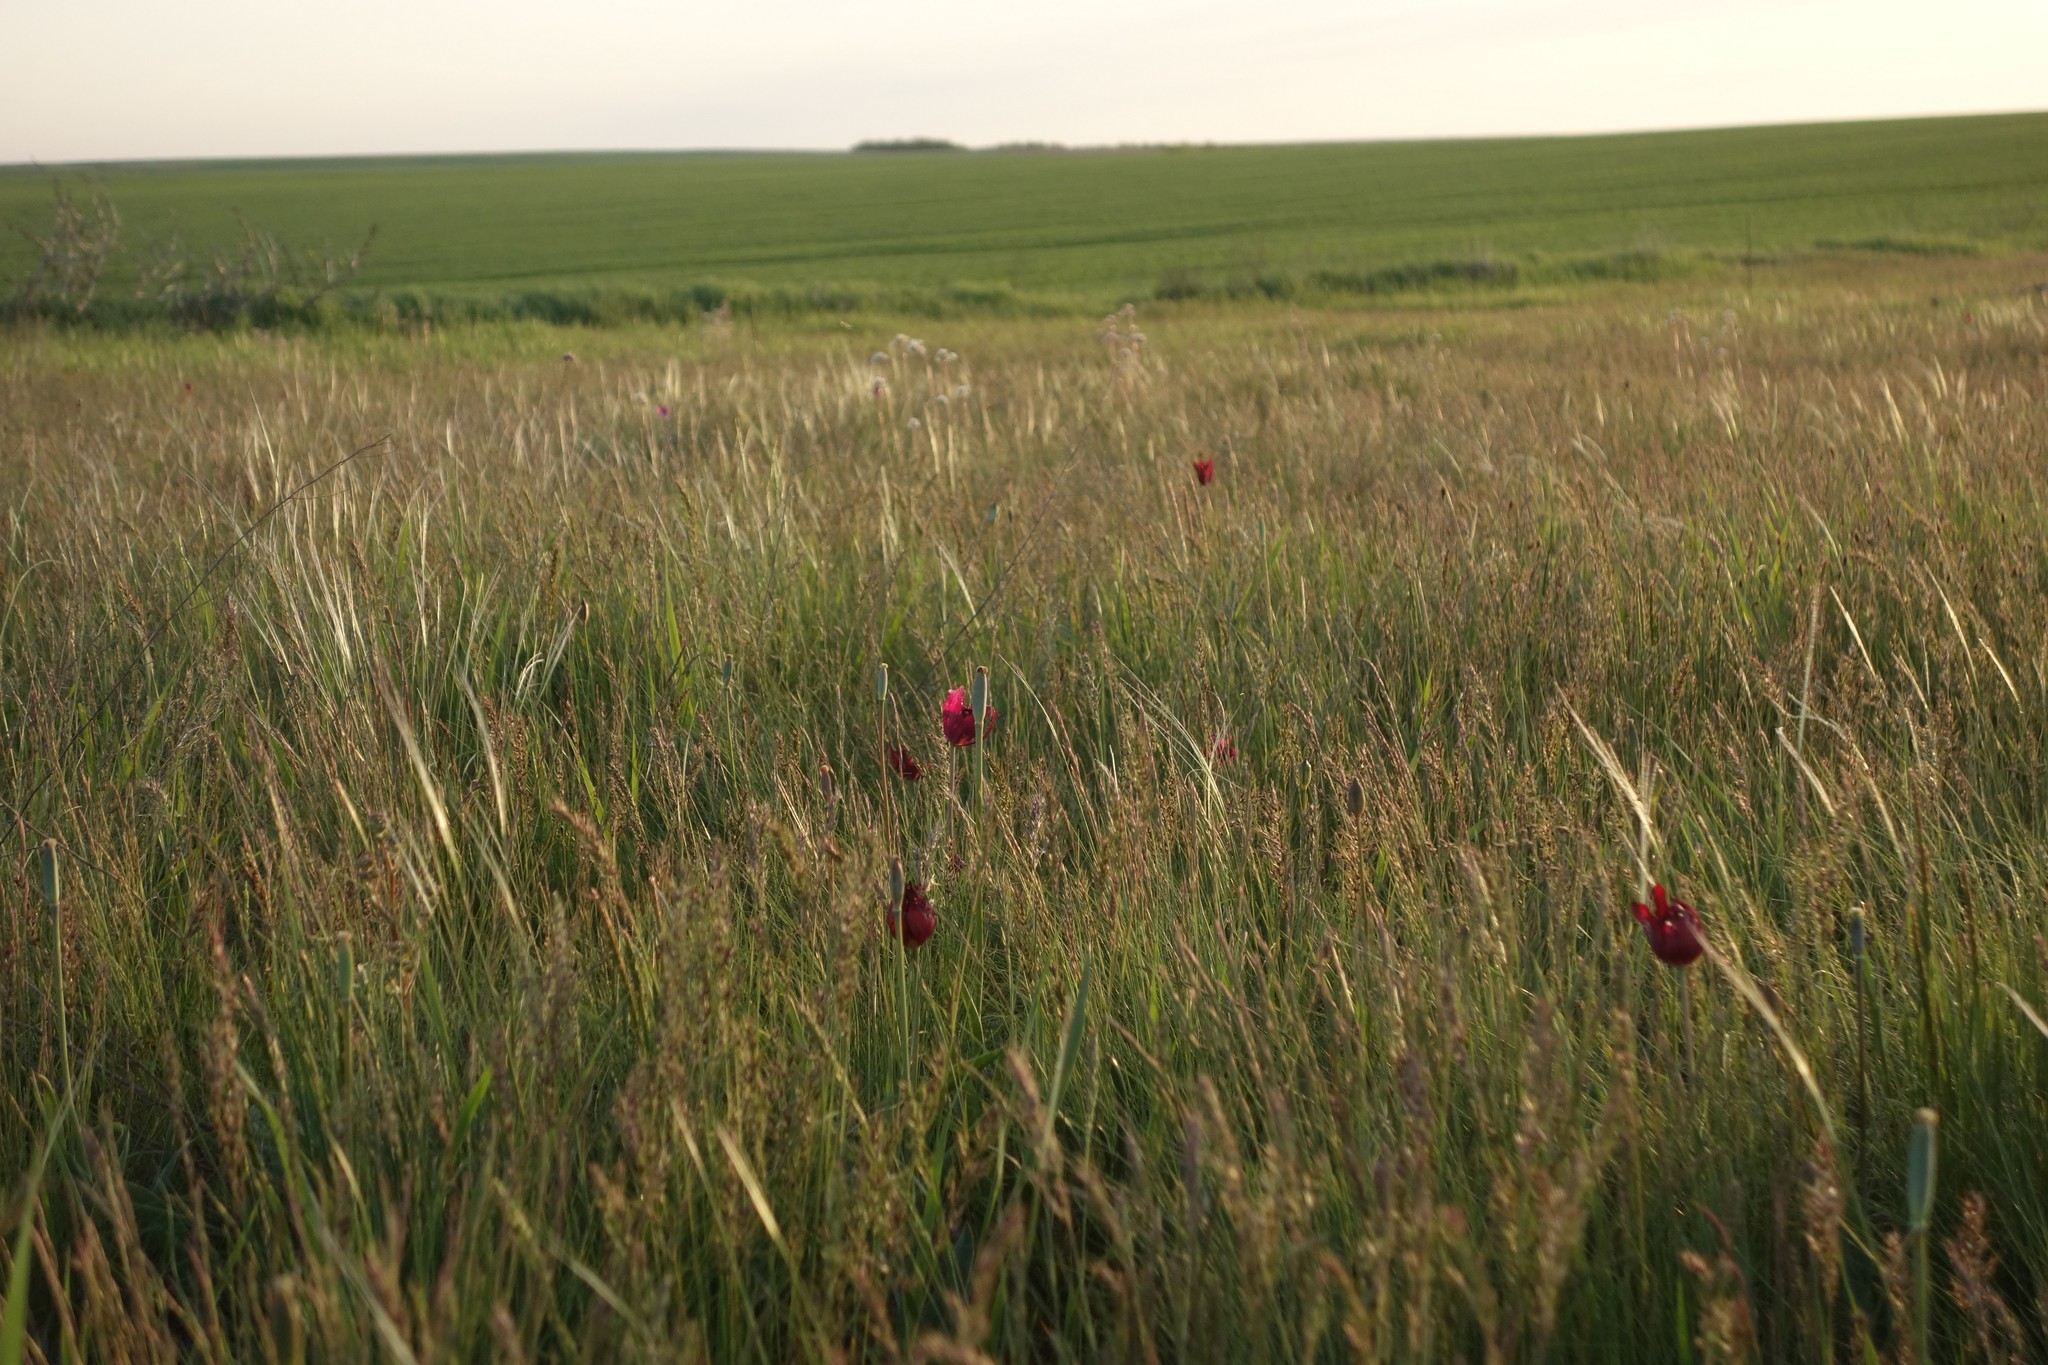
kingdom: Plantae
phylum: Tracheophyta
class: Liliopsida
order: Liliales
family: Liliaceae
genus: Tulipa
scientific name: Tulipa suaveolens
